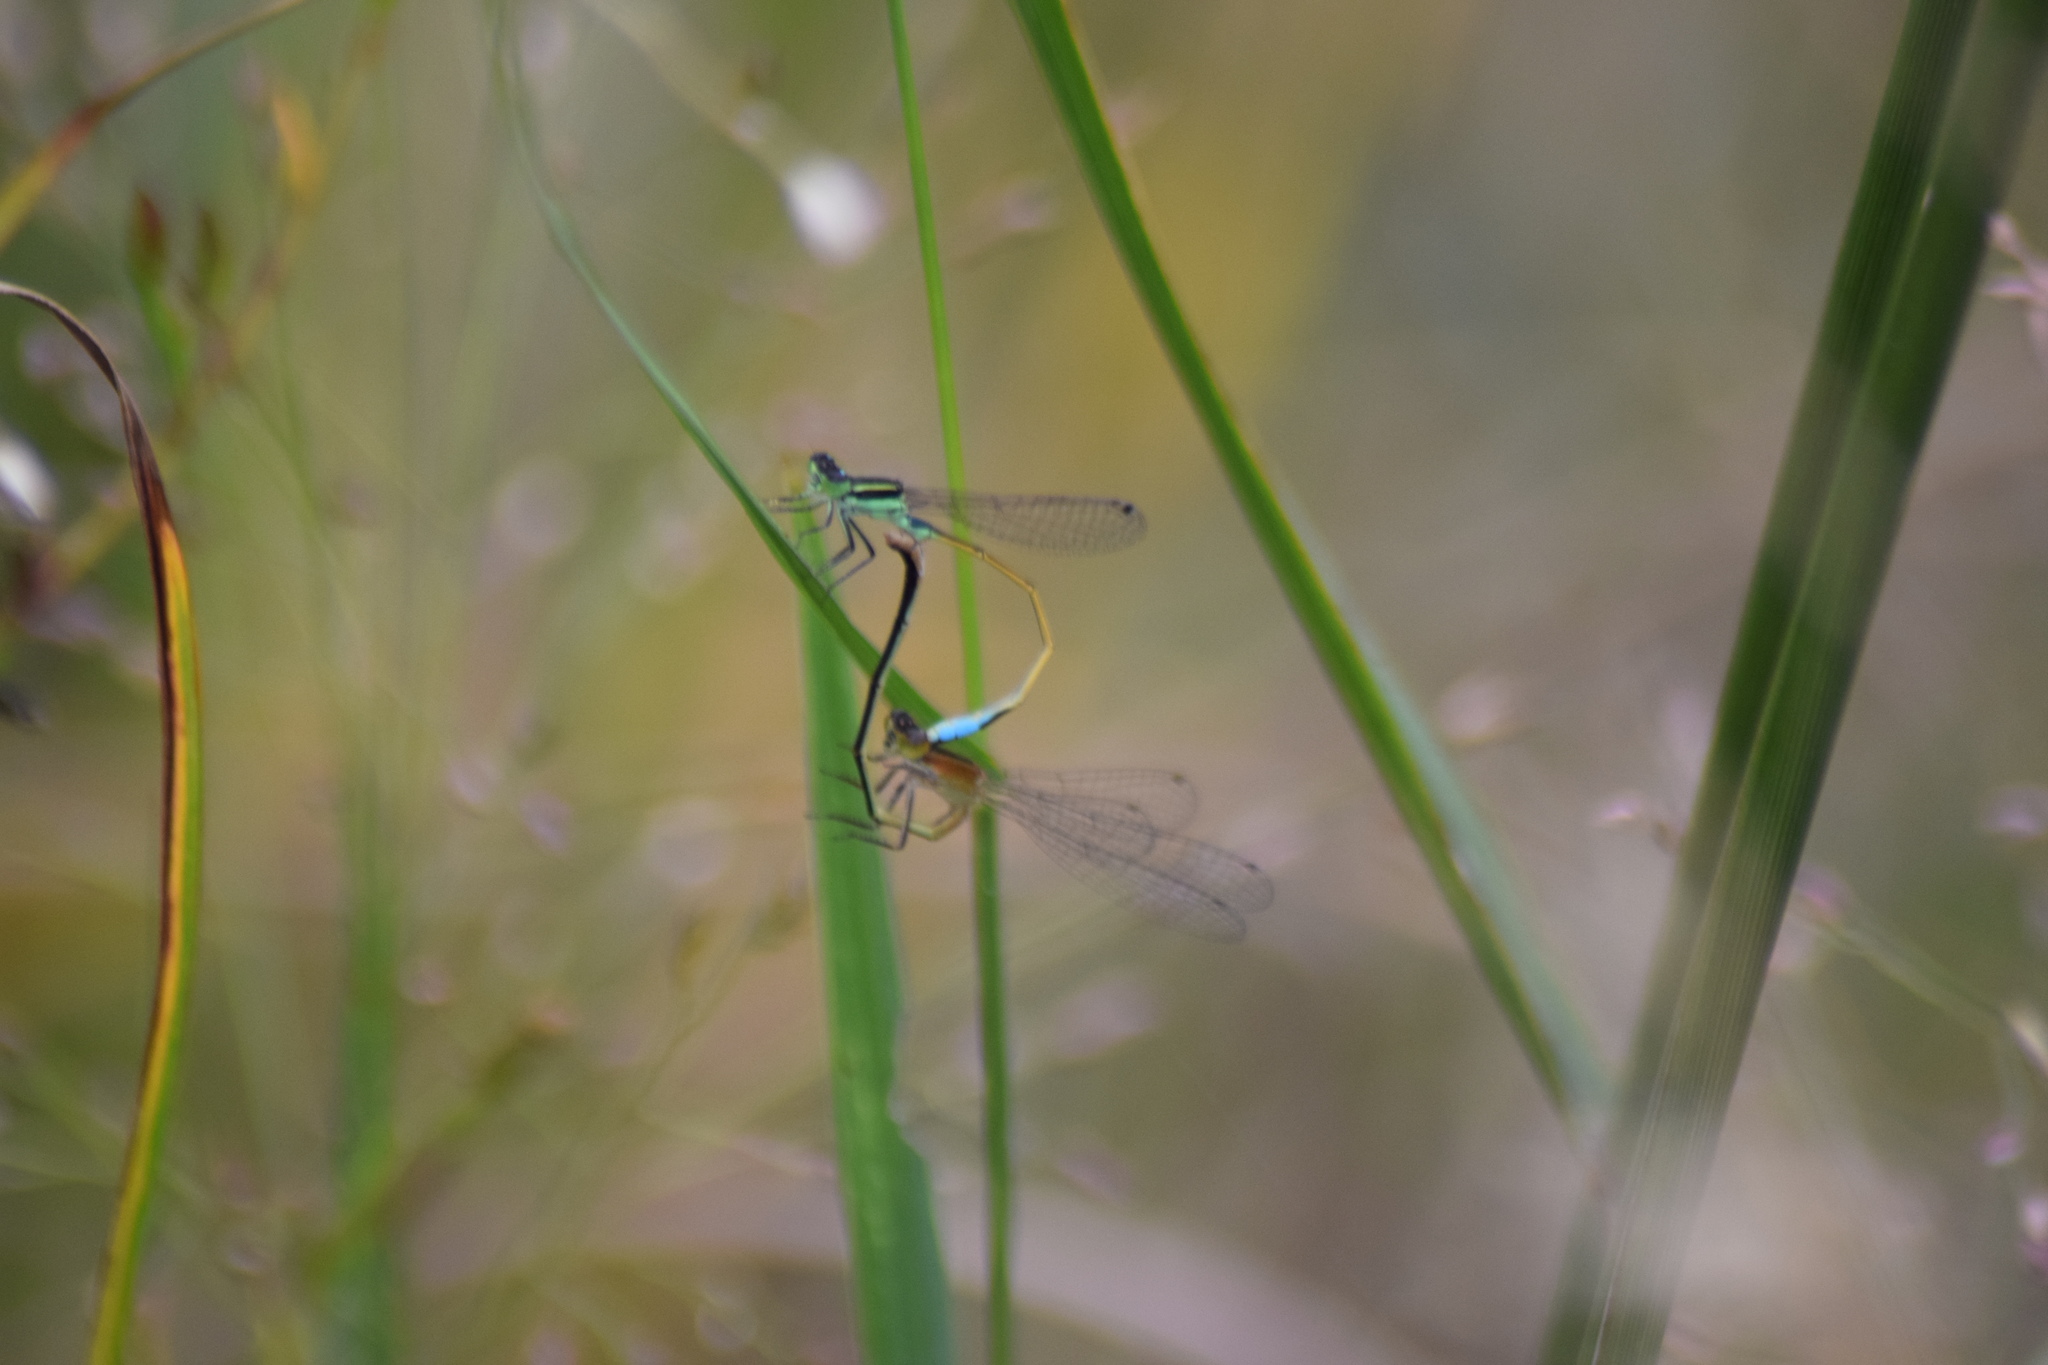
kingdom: Animalia
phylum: Arthropoda
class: Insecta
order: Odonata
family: Coenagrionidae
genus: Ischnura
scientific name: Ischnura ramburii
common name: Rambur's forktail
